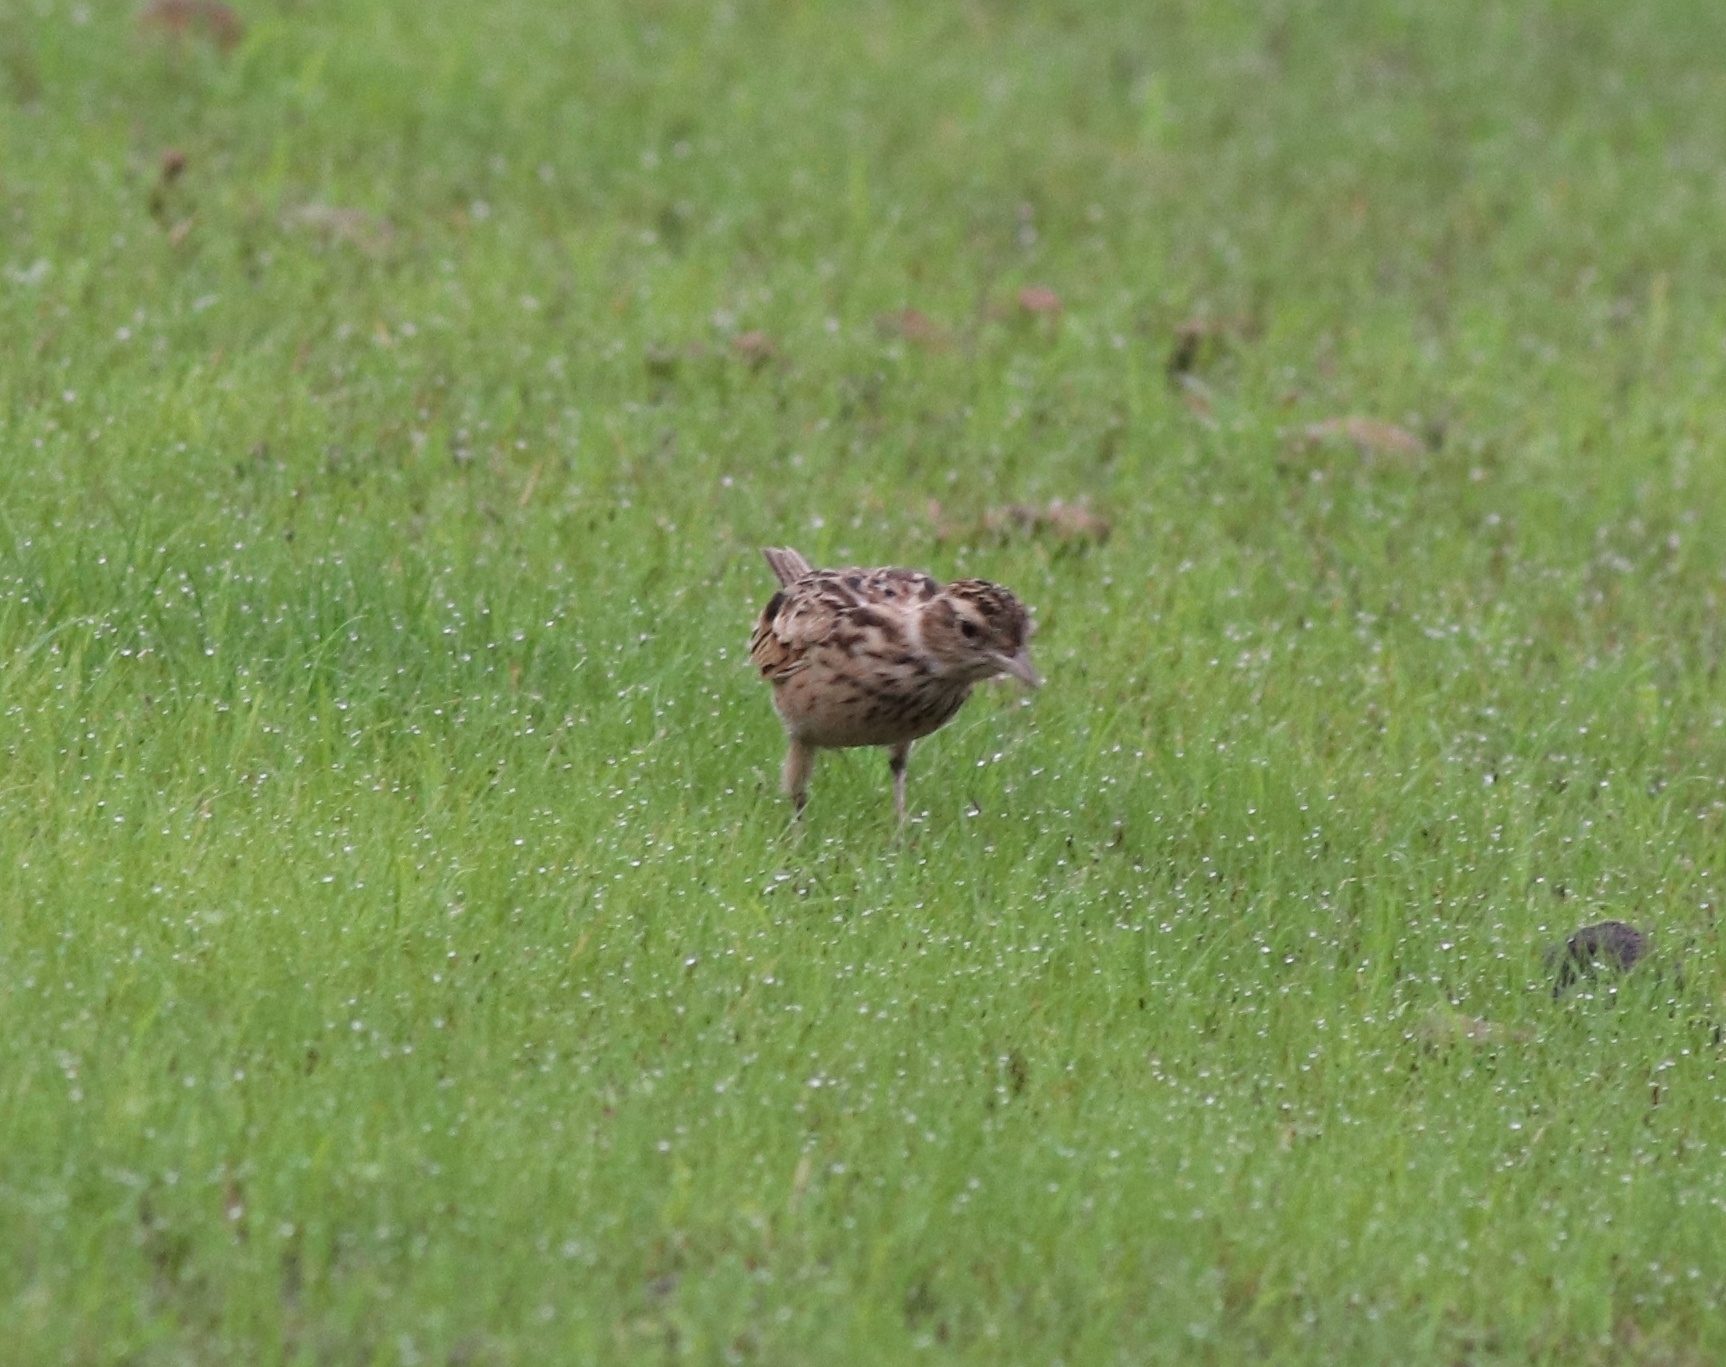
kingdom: Animalia
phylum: Chordata
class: Aves
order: Passeriformes
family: Alaudidae
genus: Alauda
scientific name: Alauda gulgula
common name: Oriental skylark
